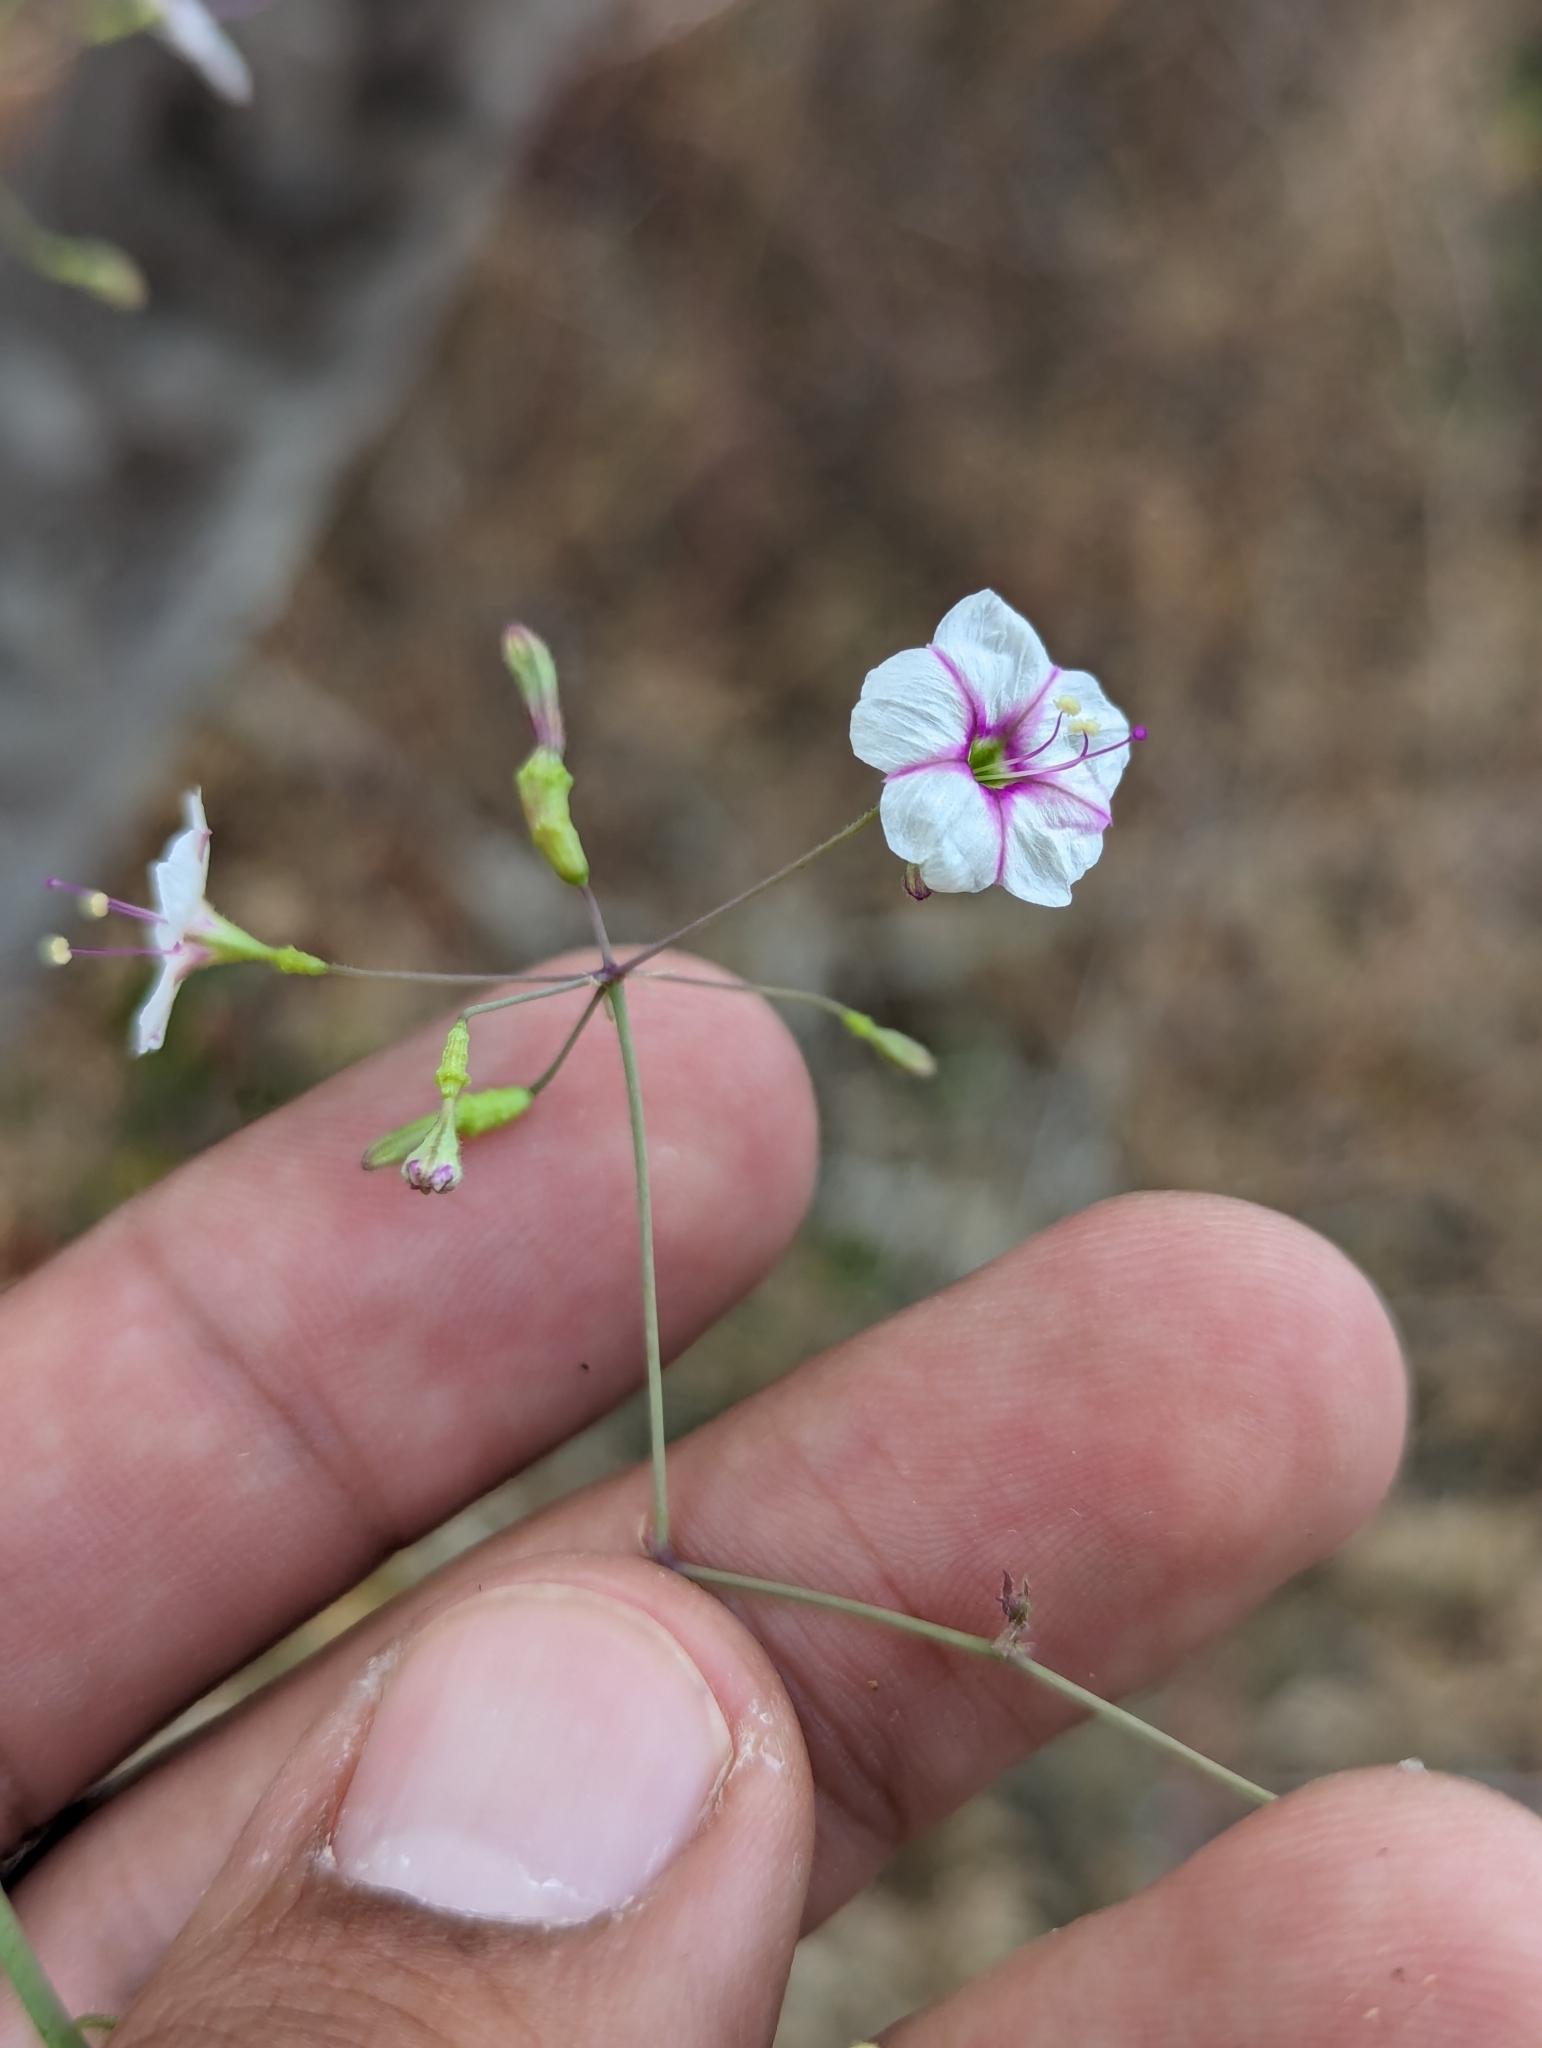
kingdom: Plantae
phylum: Tracheophyta
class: Magnoliopsida
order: Caryophyllales
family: Nyctaginaceae
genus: Commicarpus
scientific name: Commicarpus brandegeei
